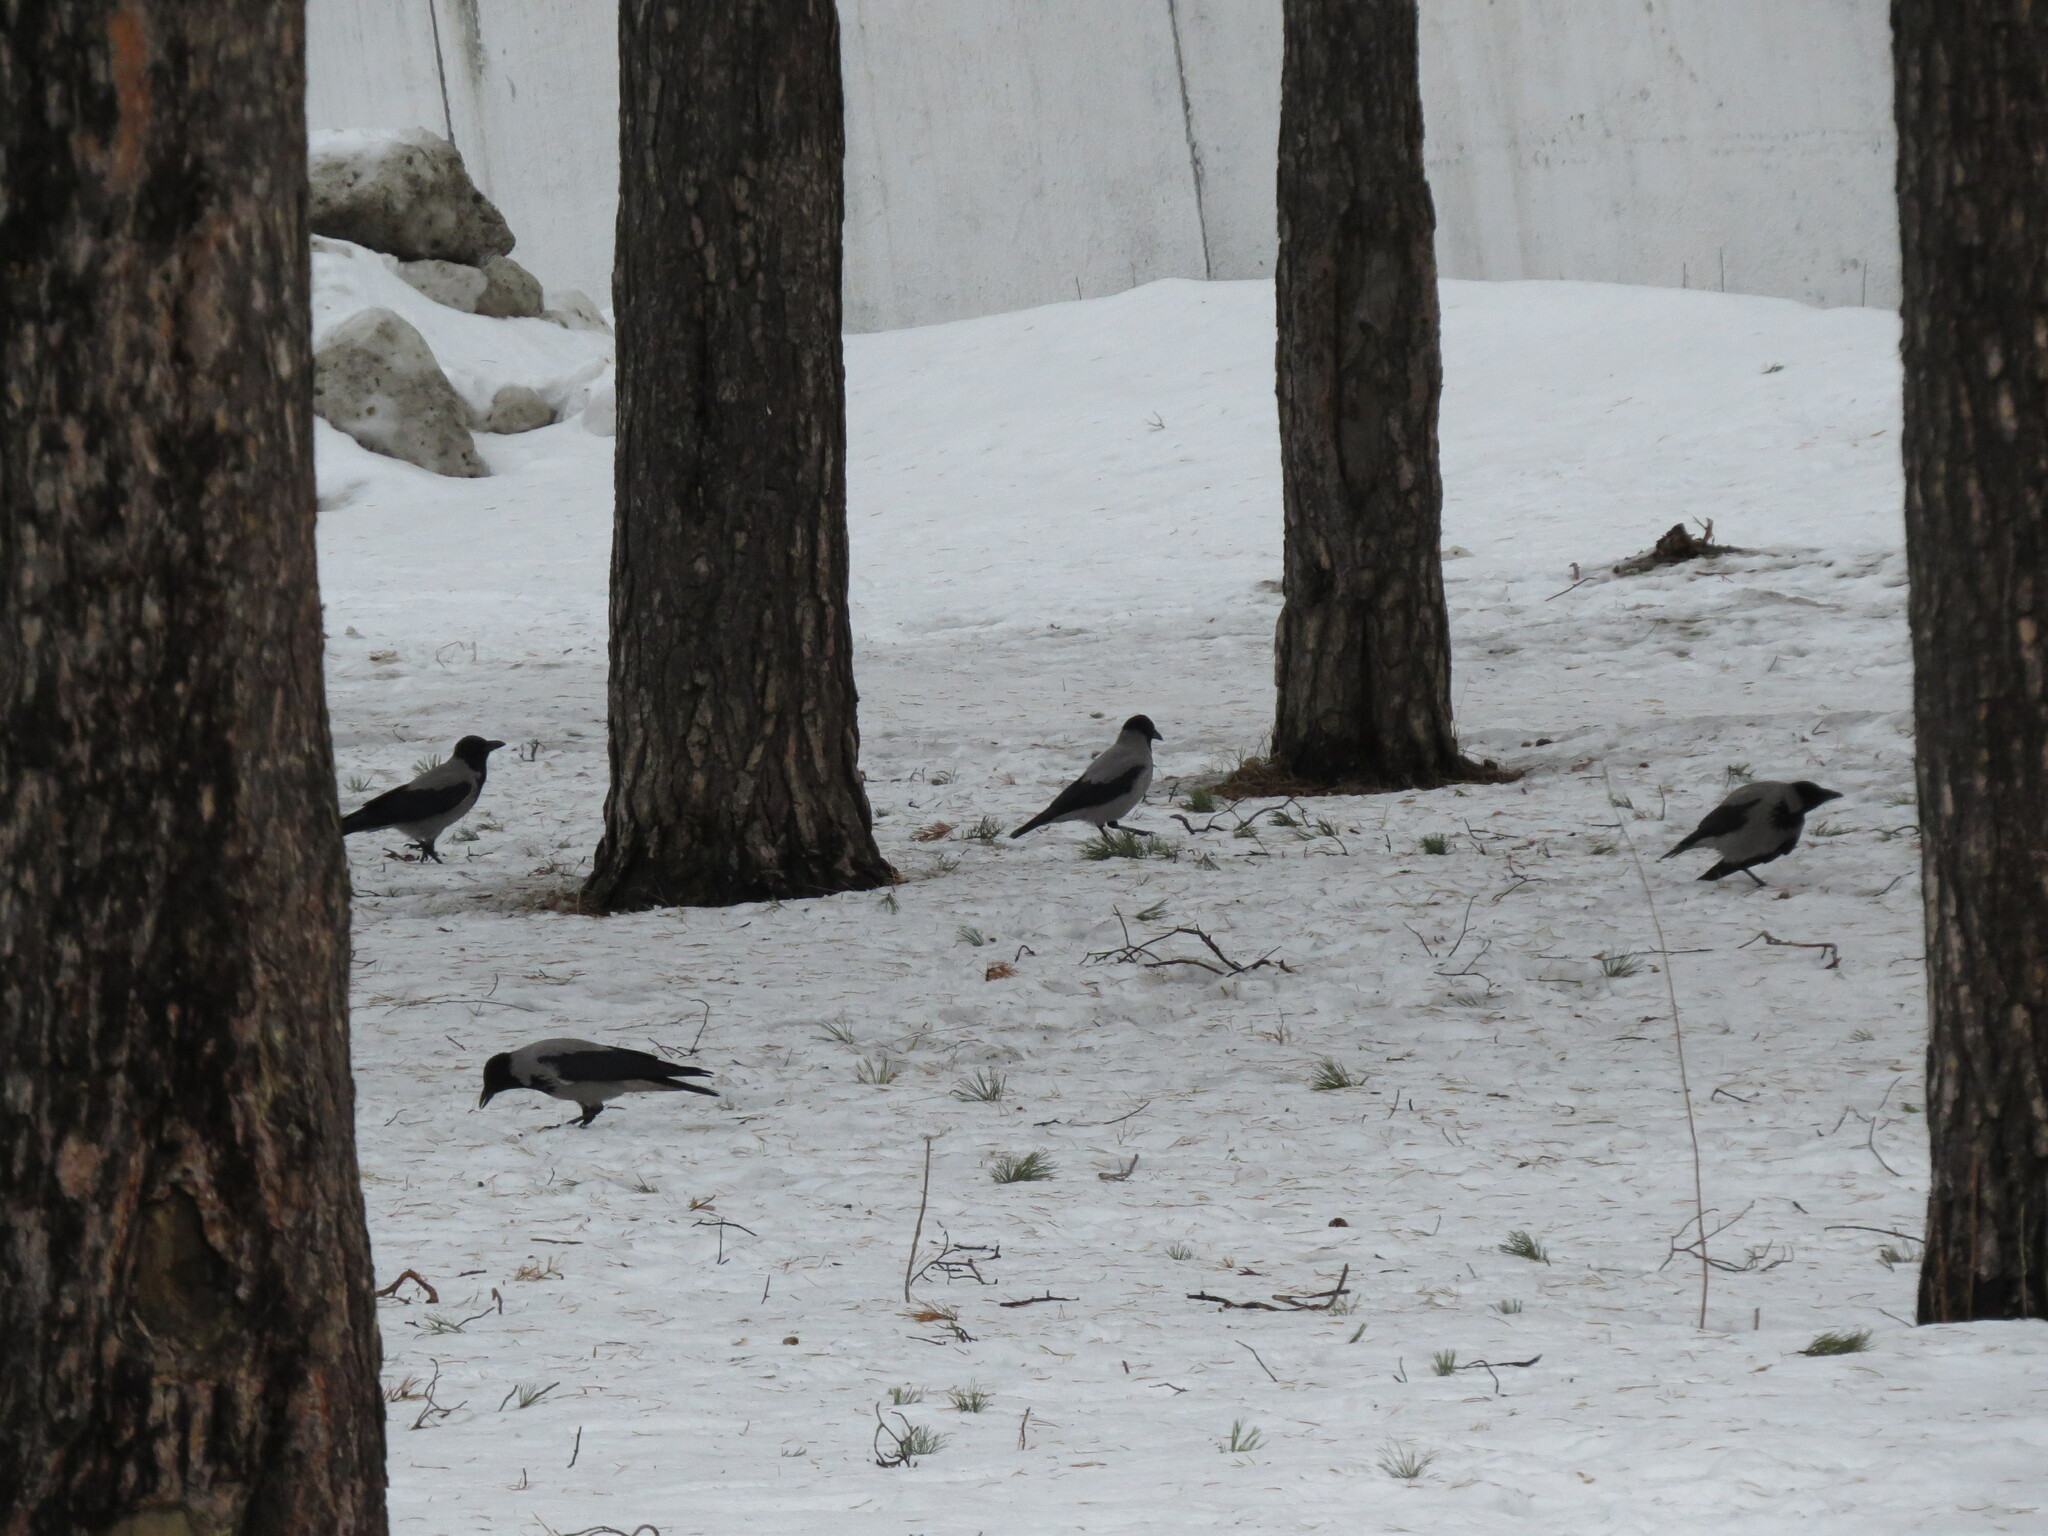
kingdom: Animalia
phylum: Chordata
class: Aves
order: Passeriformes
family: Corvidae
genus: Corvus
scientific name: Corvus cornix
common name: Hooded crow
